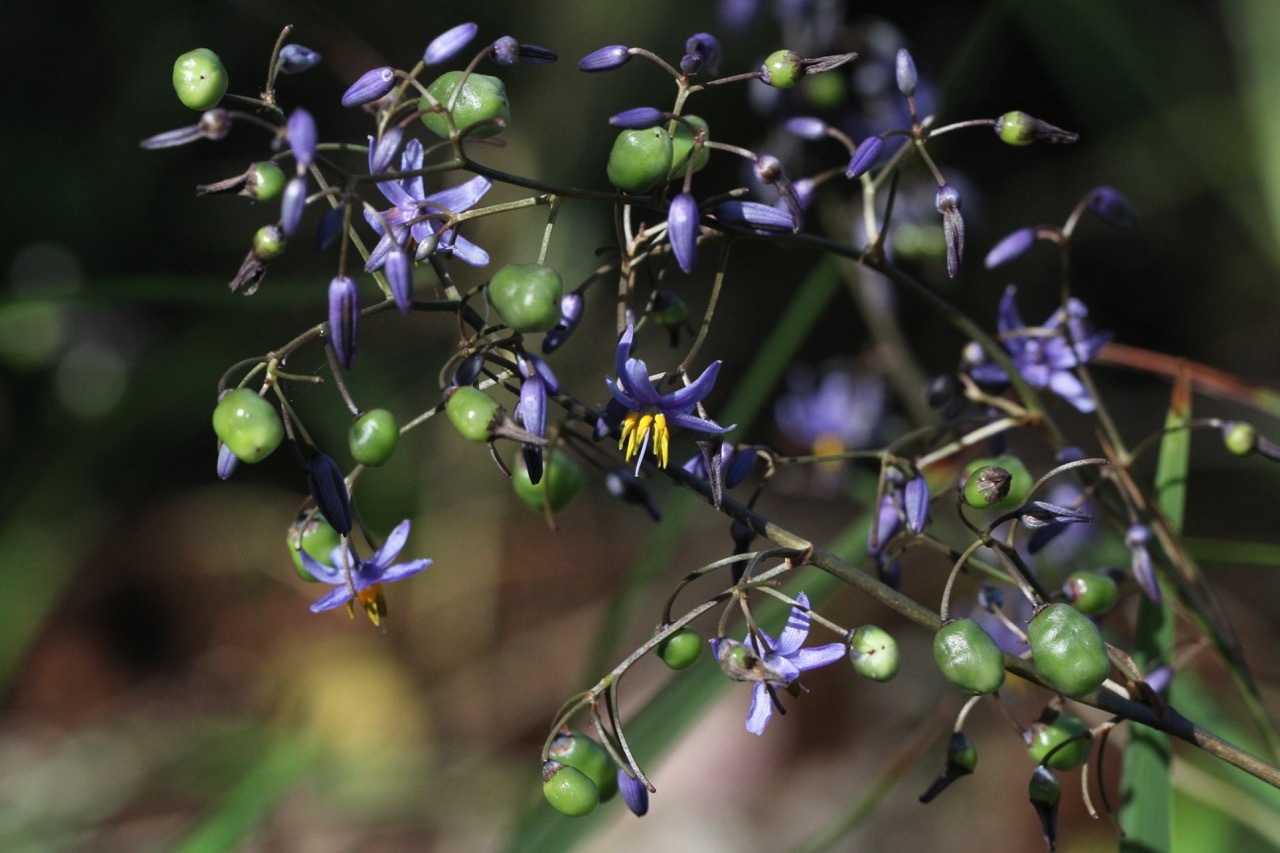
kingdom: Plantae
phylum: Tracheophyta
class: Liliopsida
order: Asparagales
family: Asphodelaceae
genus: Dianella
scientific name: Dianella caerulea
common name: Blue flax-lily
